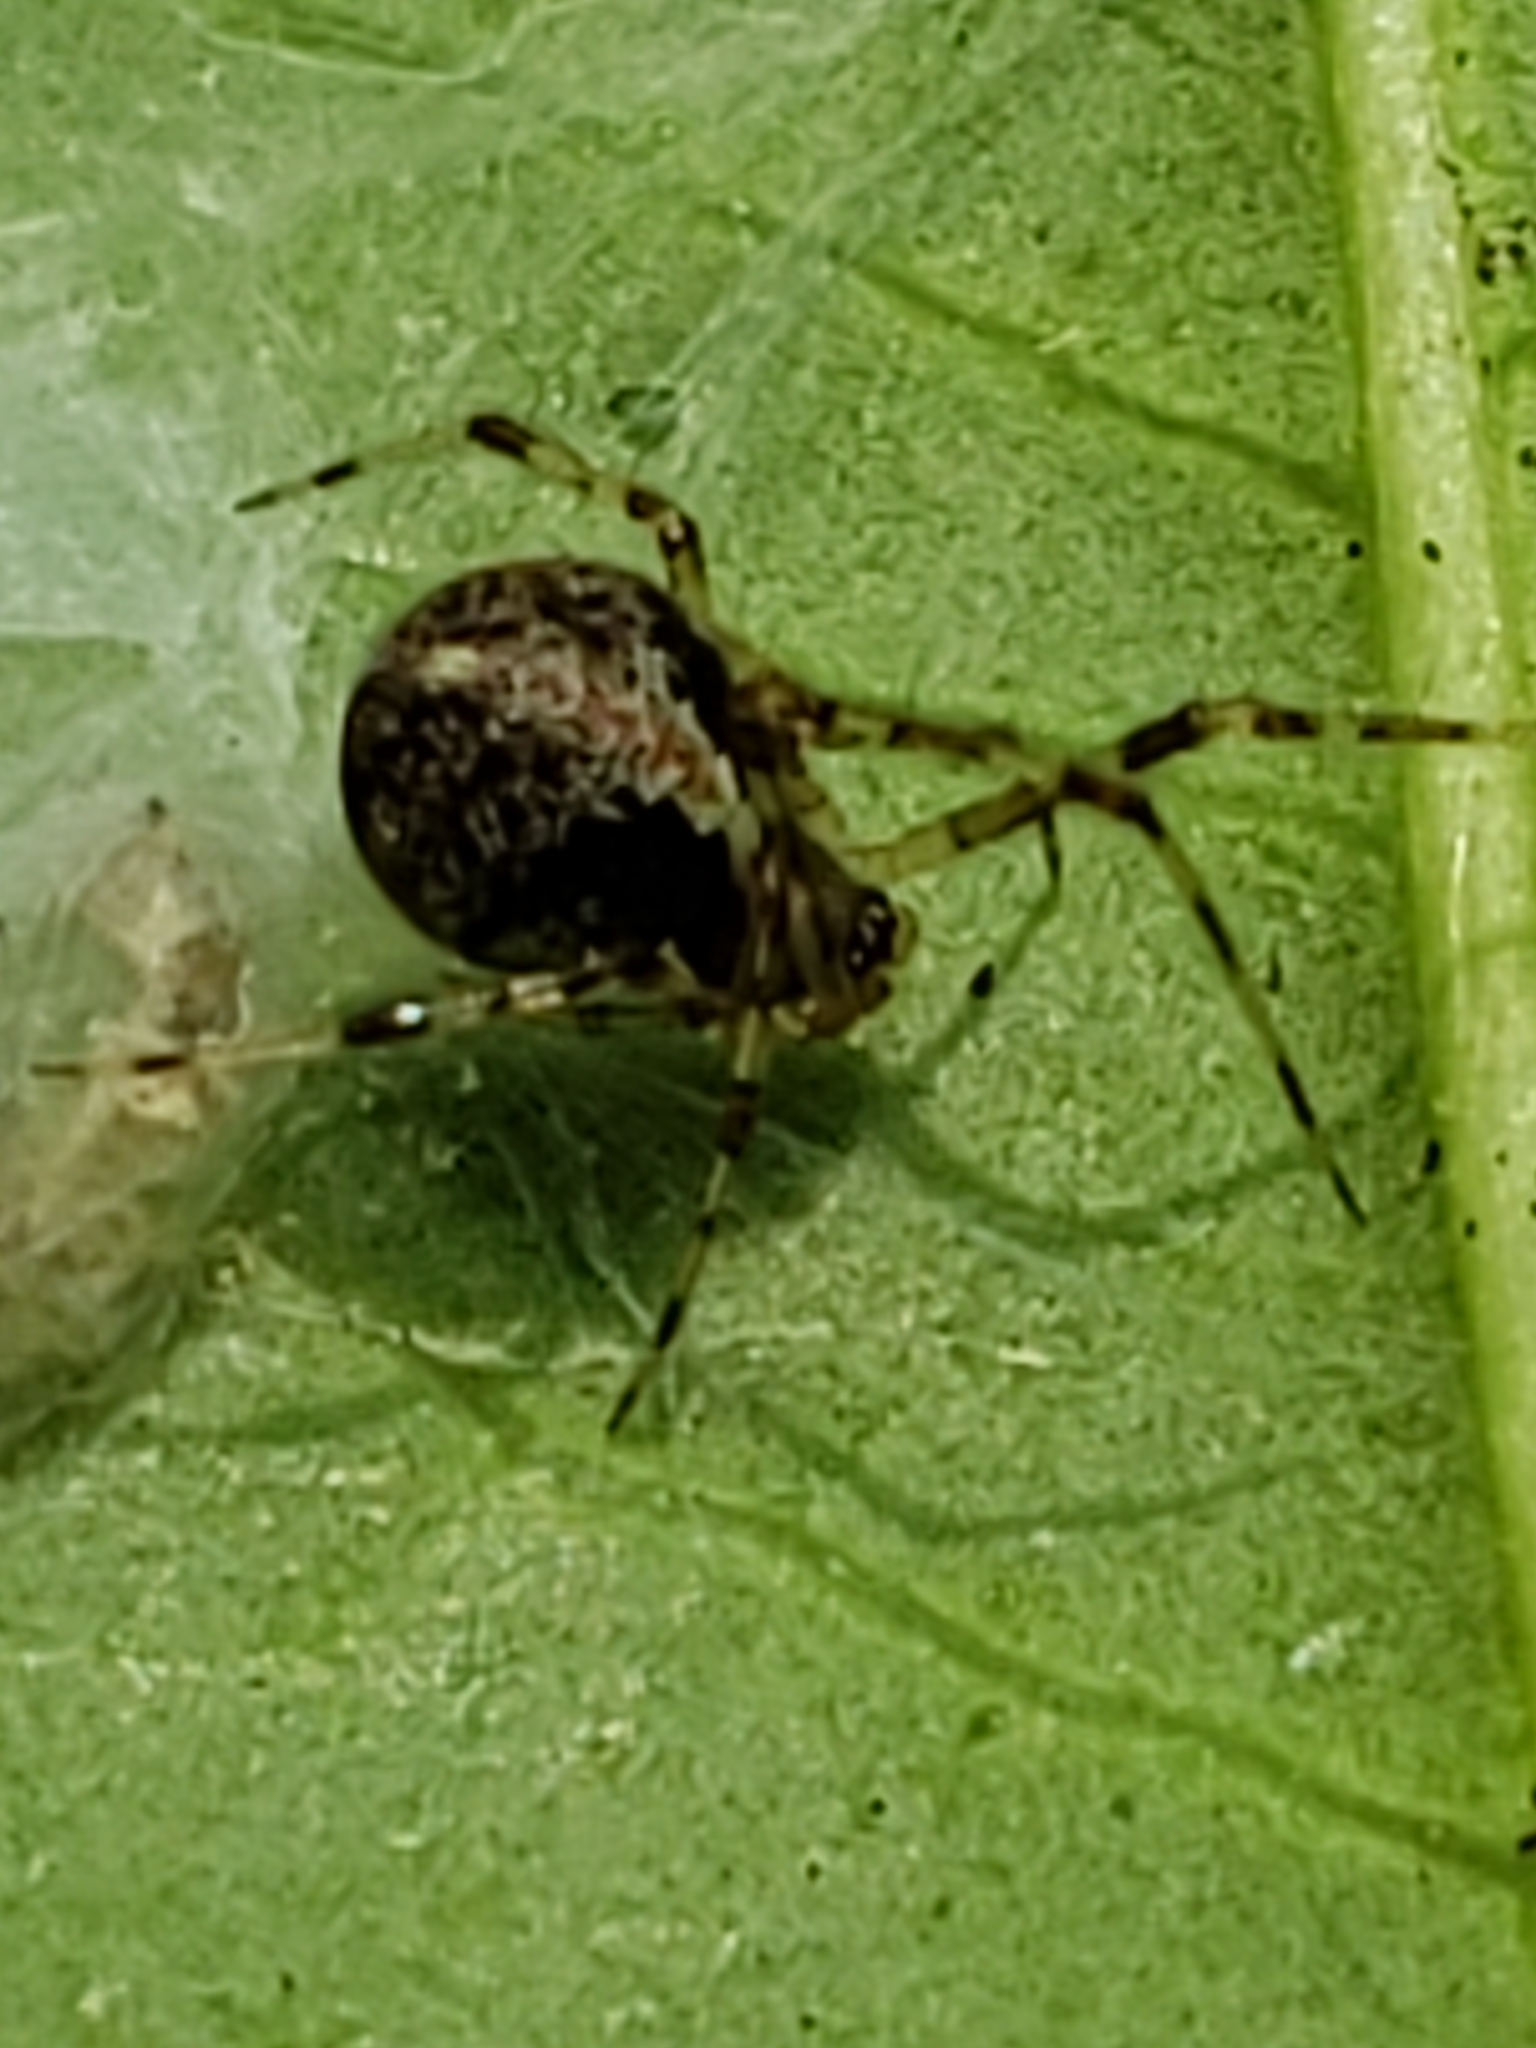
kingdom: Animalia
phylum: Arthropoda
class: Arachnida
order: Araneae
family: Theridiidae
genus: Yunohamella
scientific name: Yunohamella lyrica
